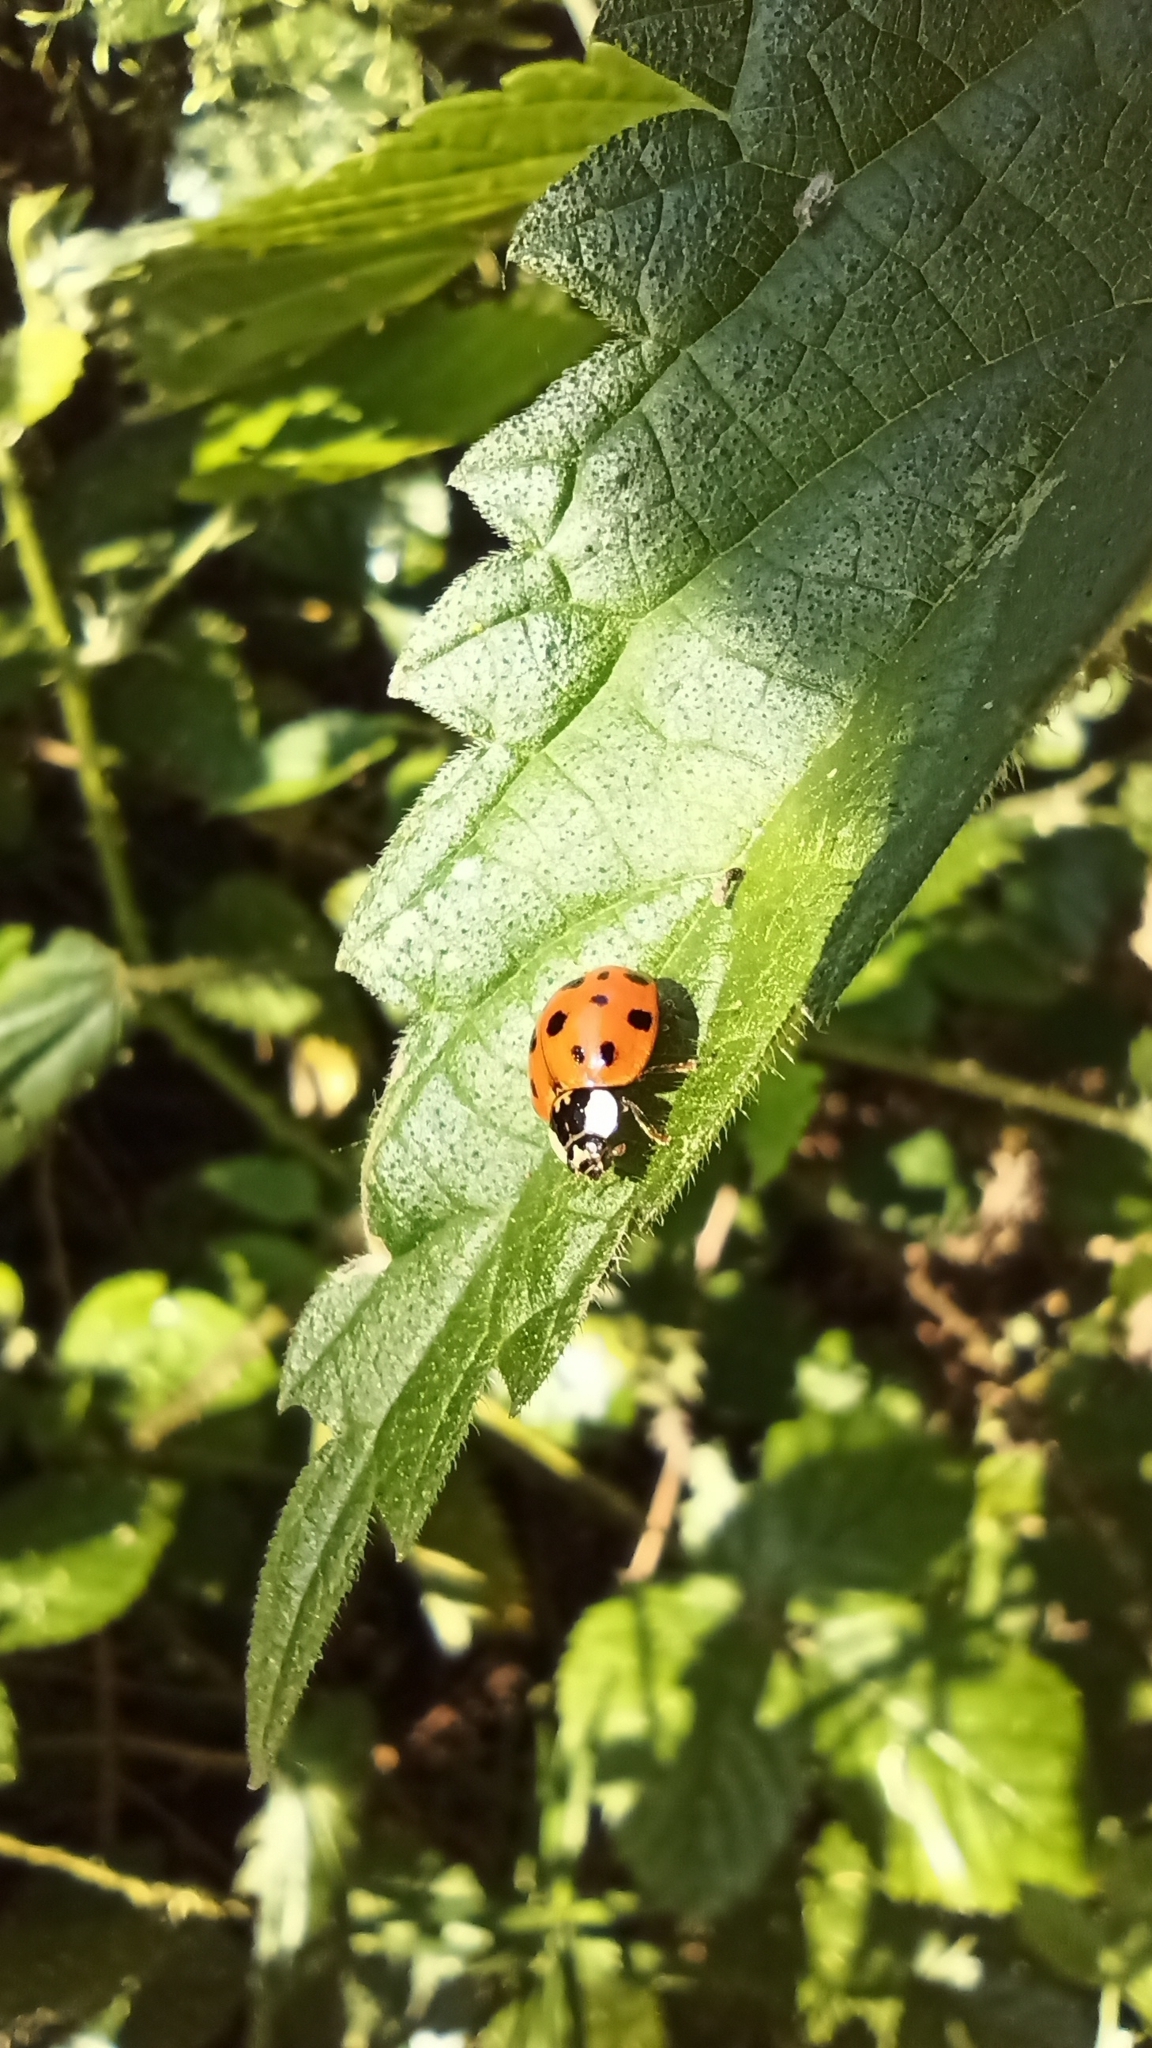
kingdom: Animalia
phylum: Arthropoda
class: Insecta
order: Coleoptera
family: Coccinellidae
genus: Harmonia
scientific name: Harmonia axyridis
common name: Harlequin ladybird
